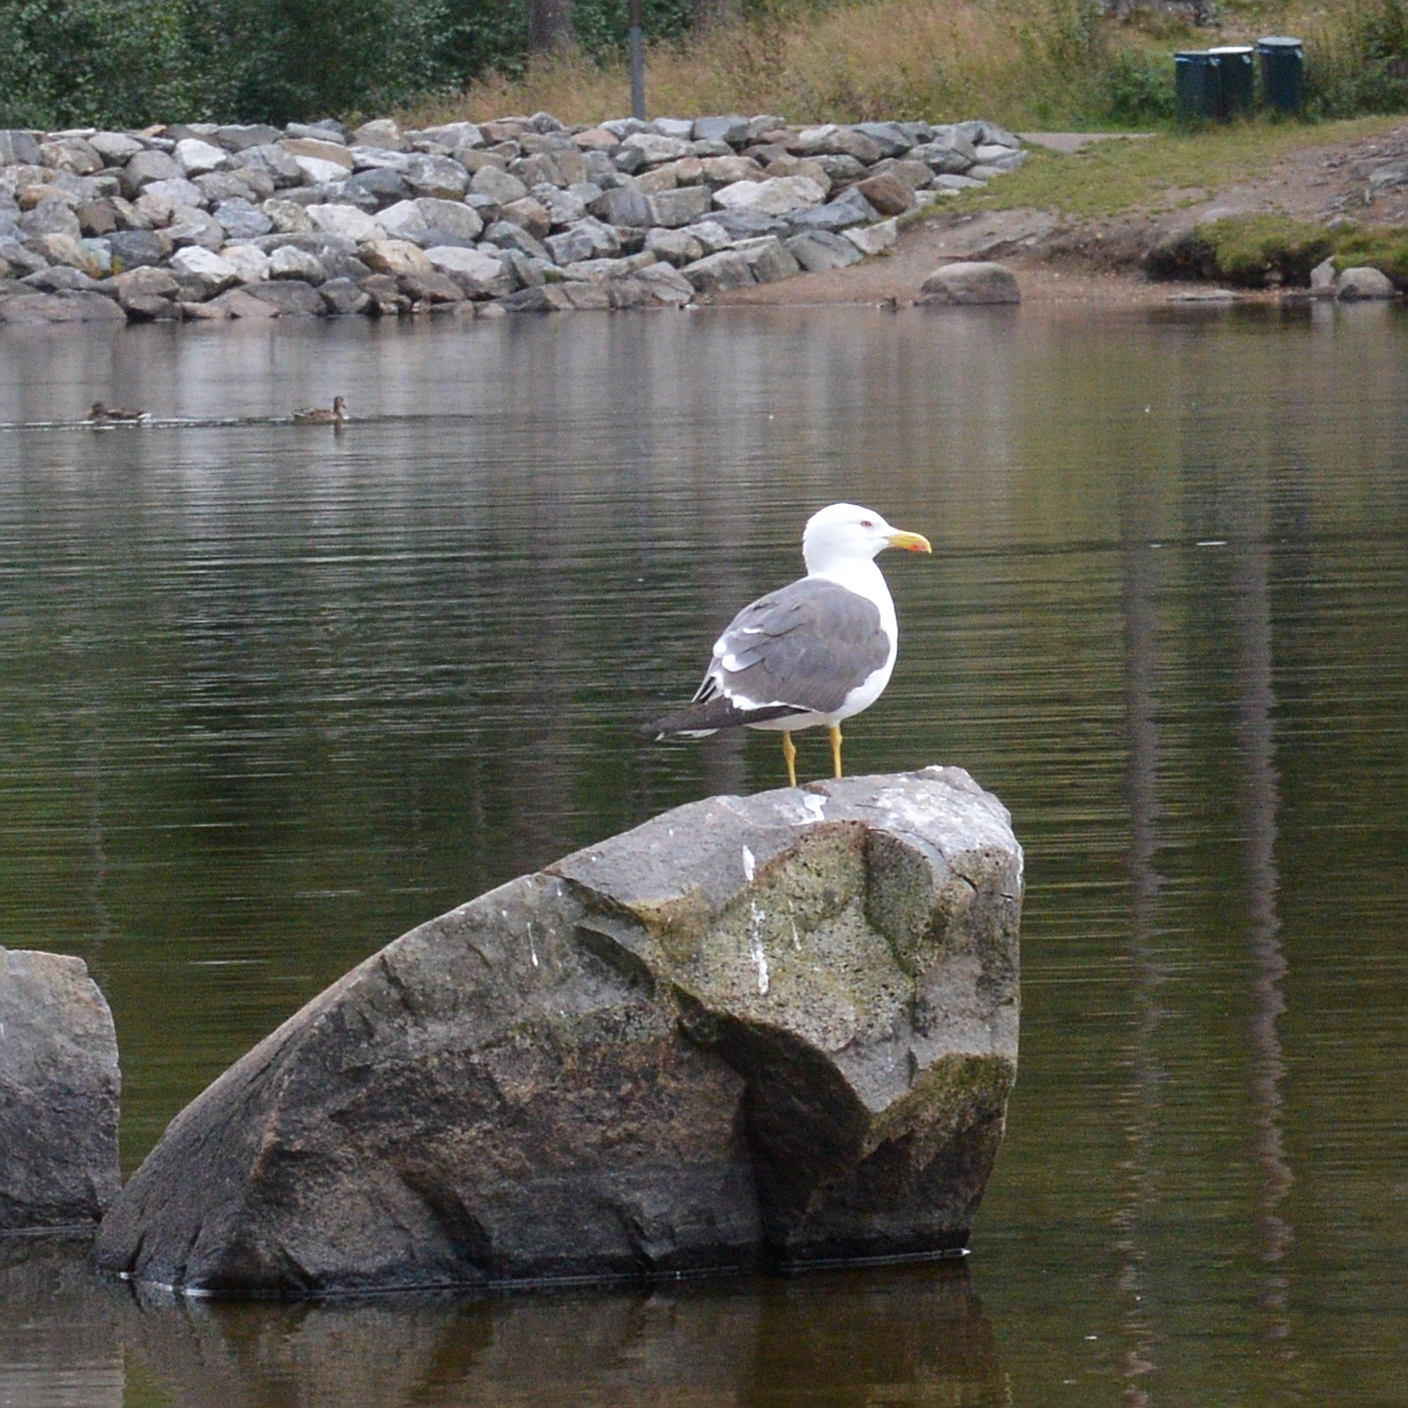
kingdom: Animalia
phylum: Chordata
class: Aves
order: Charadriiformes
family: Laridae
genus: Larus
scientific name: Larus fuscus
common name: Lesser black-backed gull
